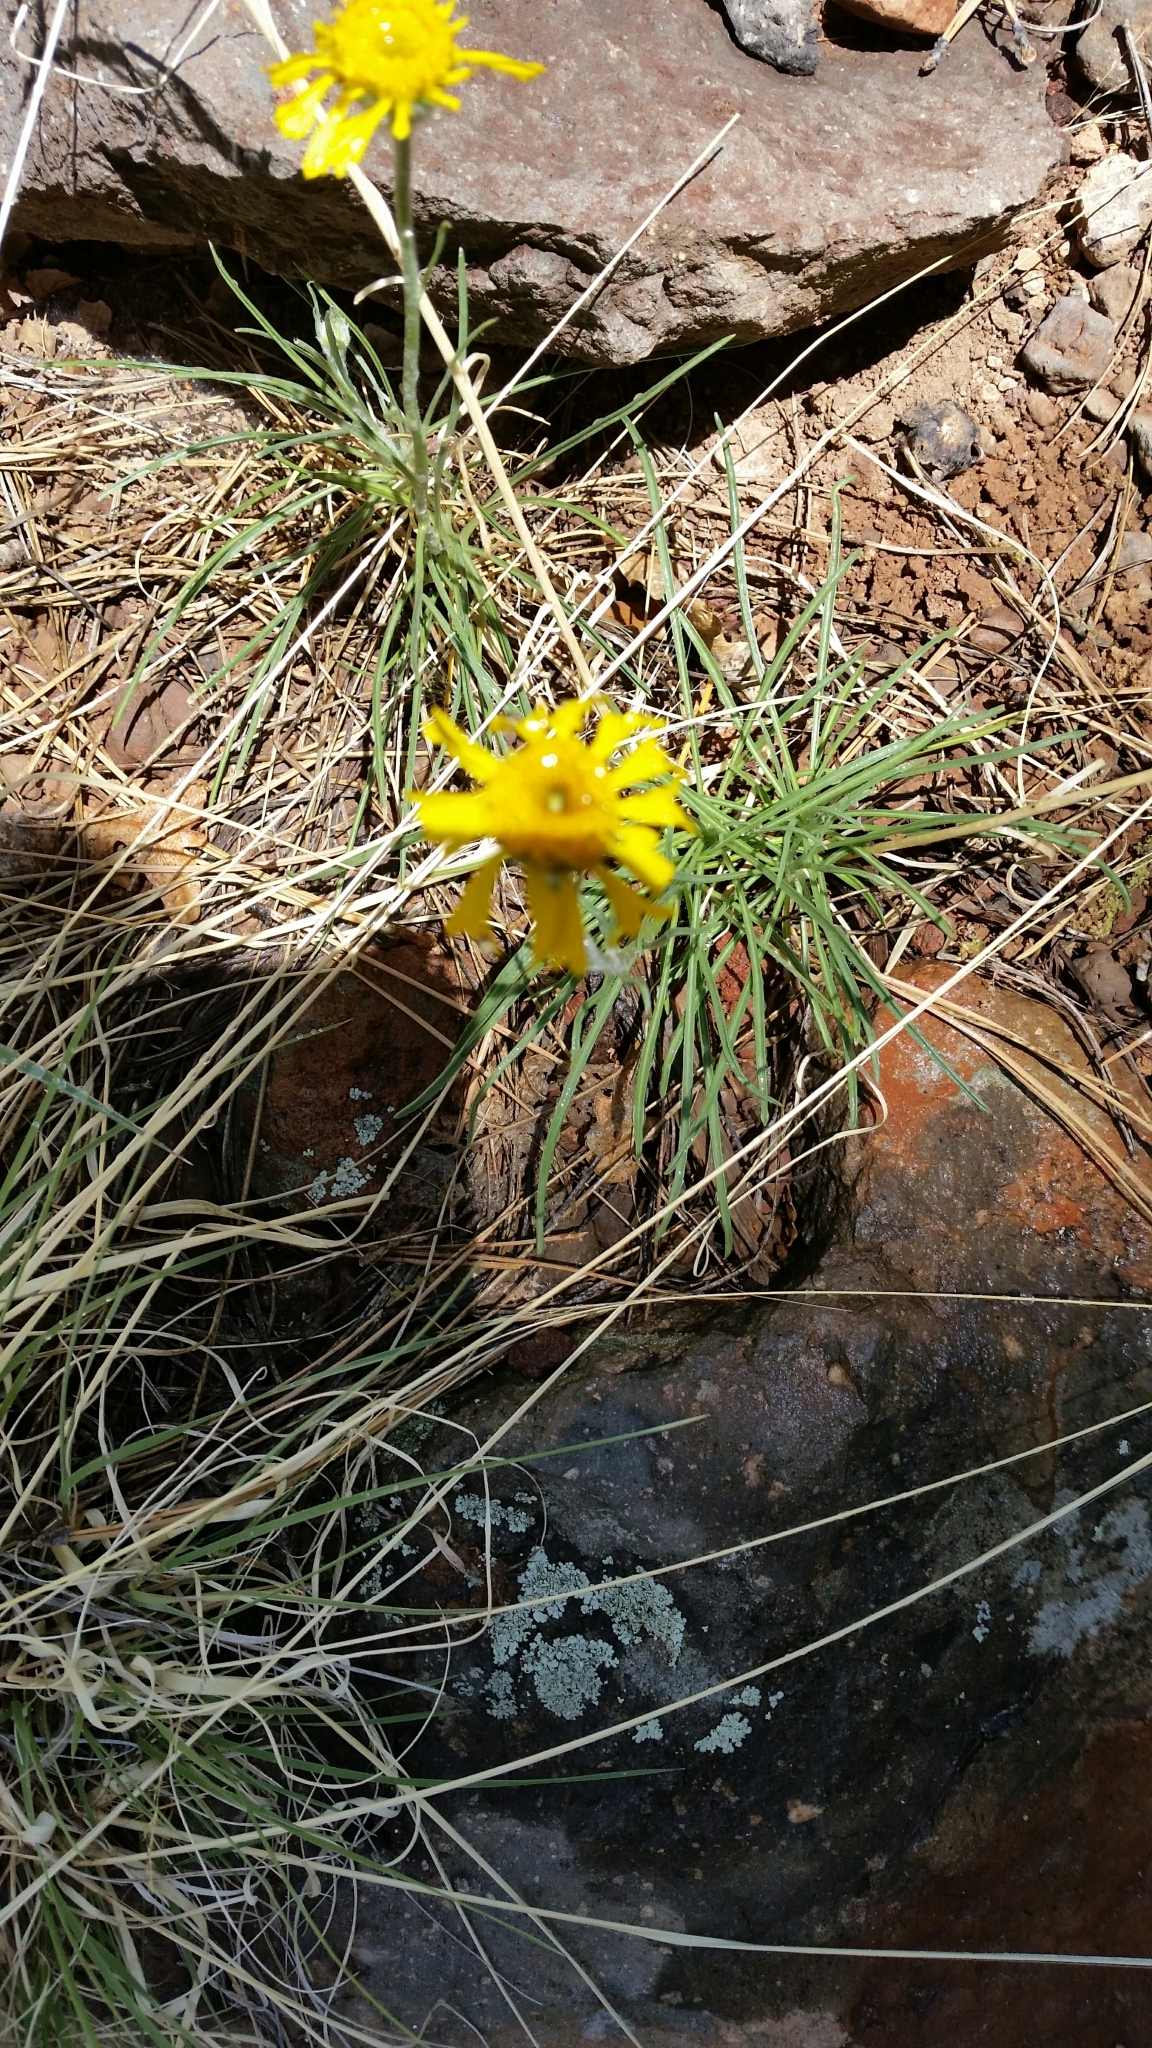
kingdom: Plantae
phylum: Tracheophyta
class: Magnoliopsida
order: Asterales
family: Asteraceae
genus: Hymenoxys
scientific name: Hymenoxys bigelovii
